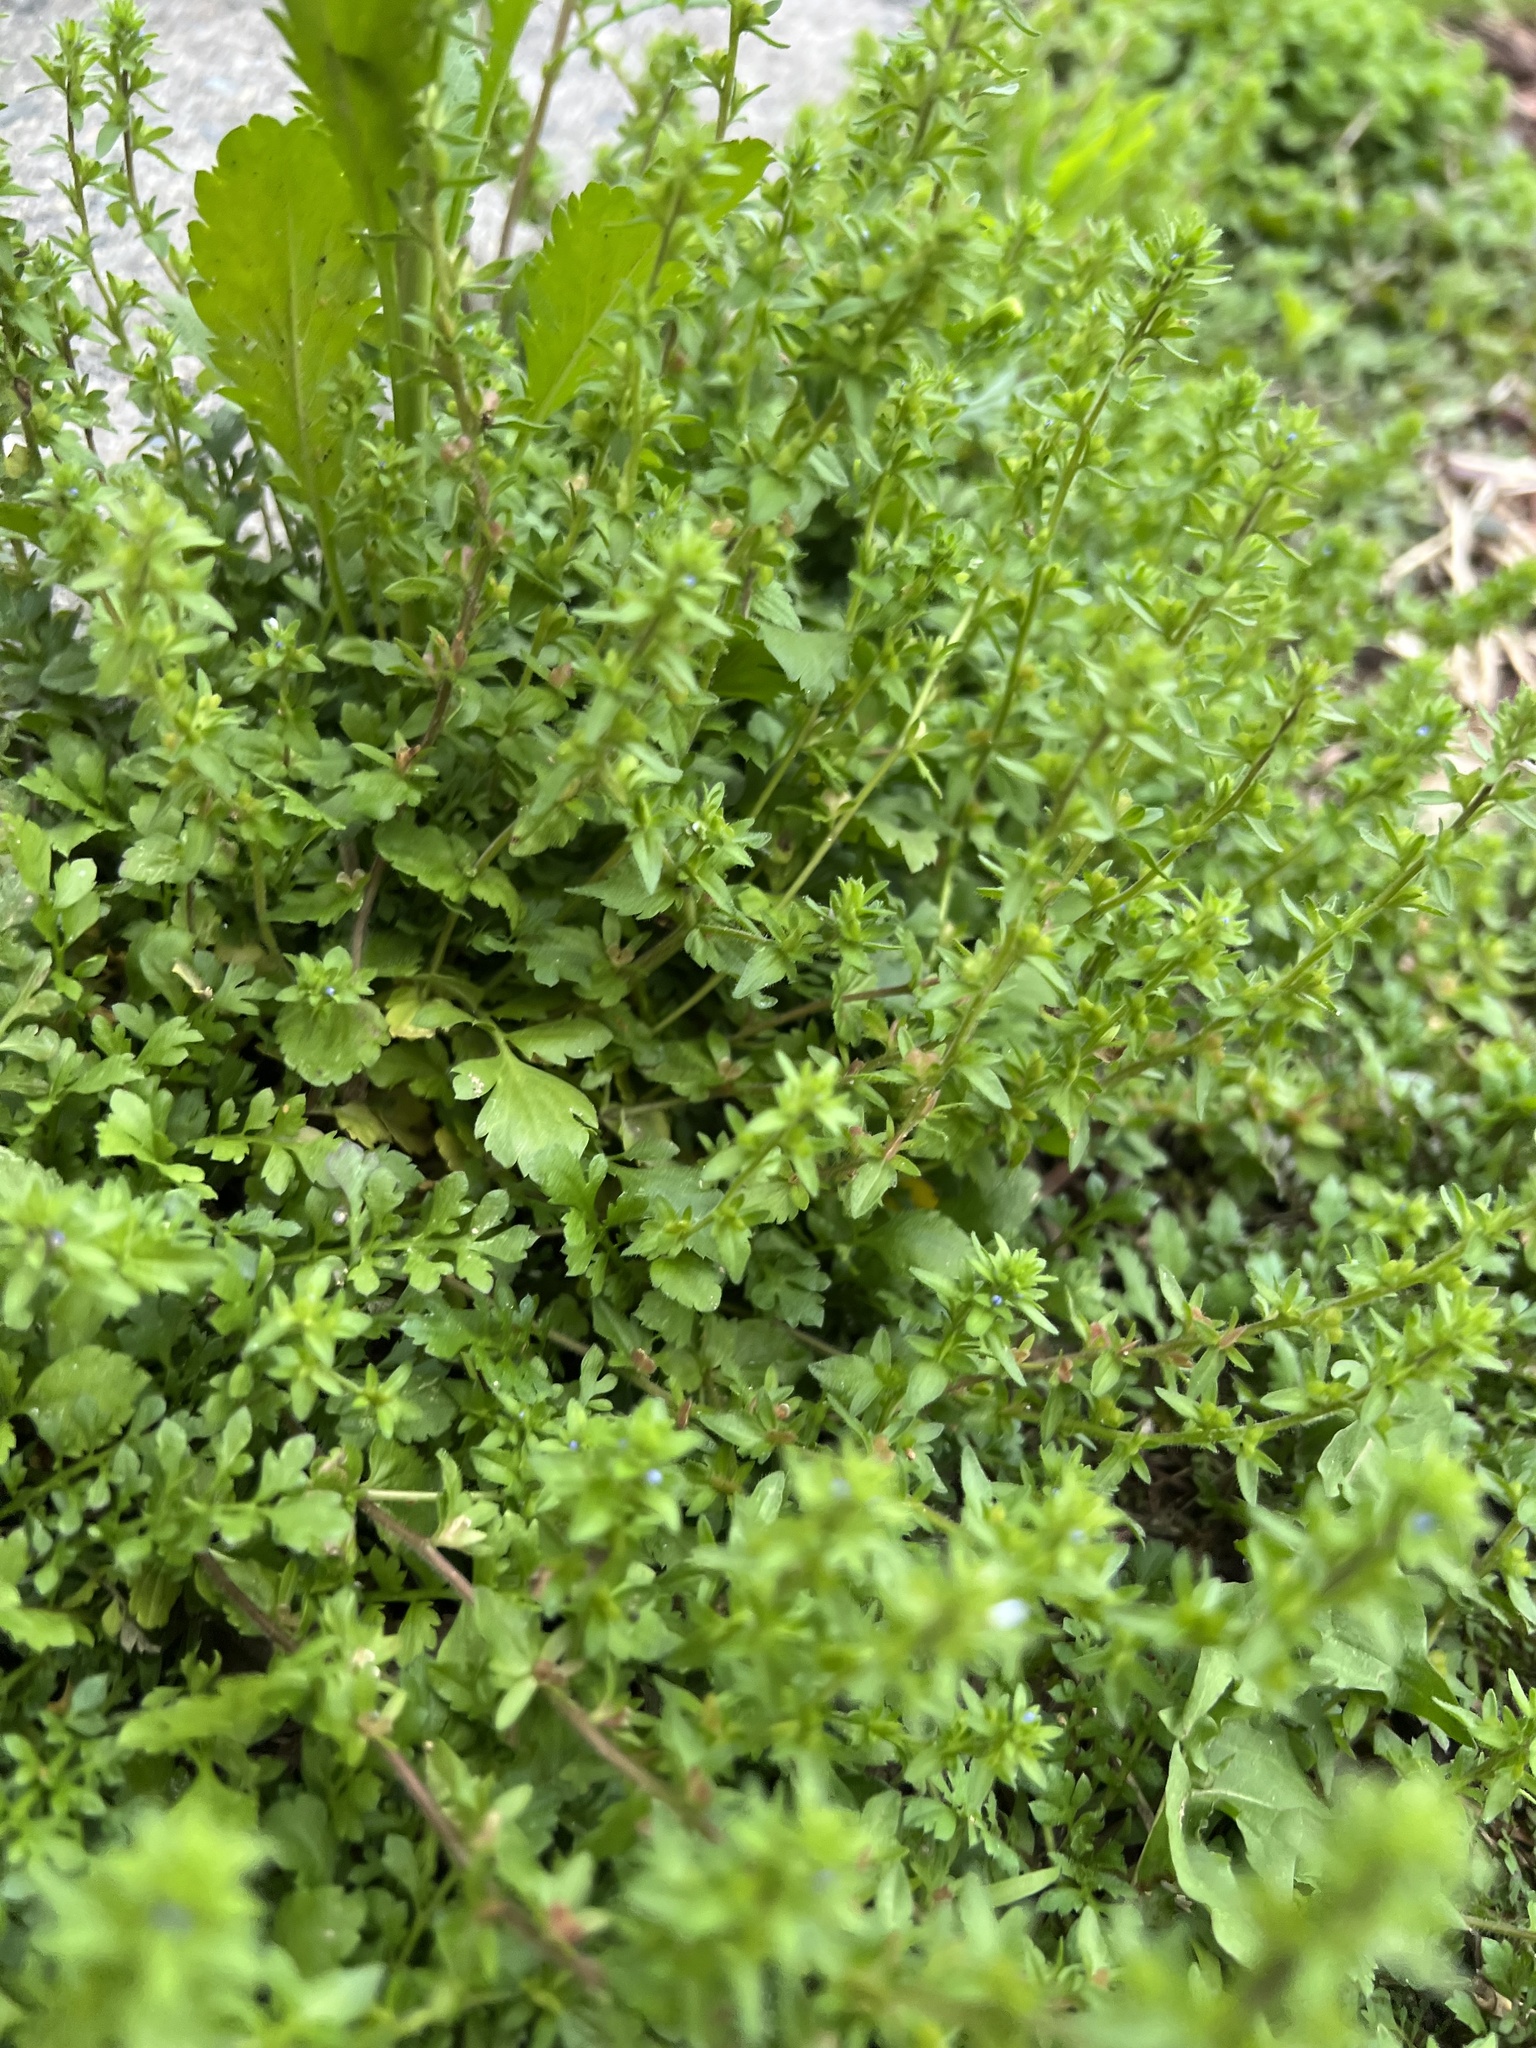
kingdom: Plantae
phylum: Tracheophyta
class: Magnoliopsida
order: Lamiales
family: Plantaginaceae
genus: Veronica
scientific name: Veronica arvensis
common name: Corn speedwell
